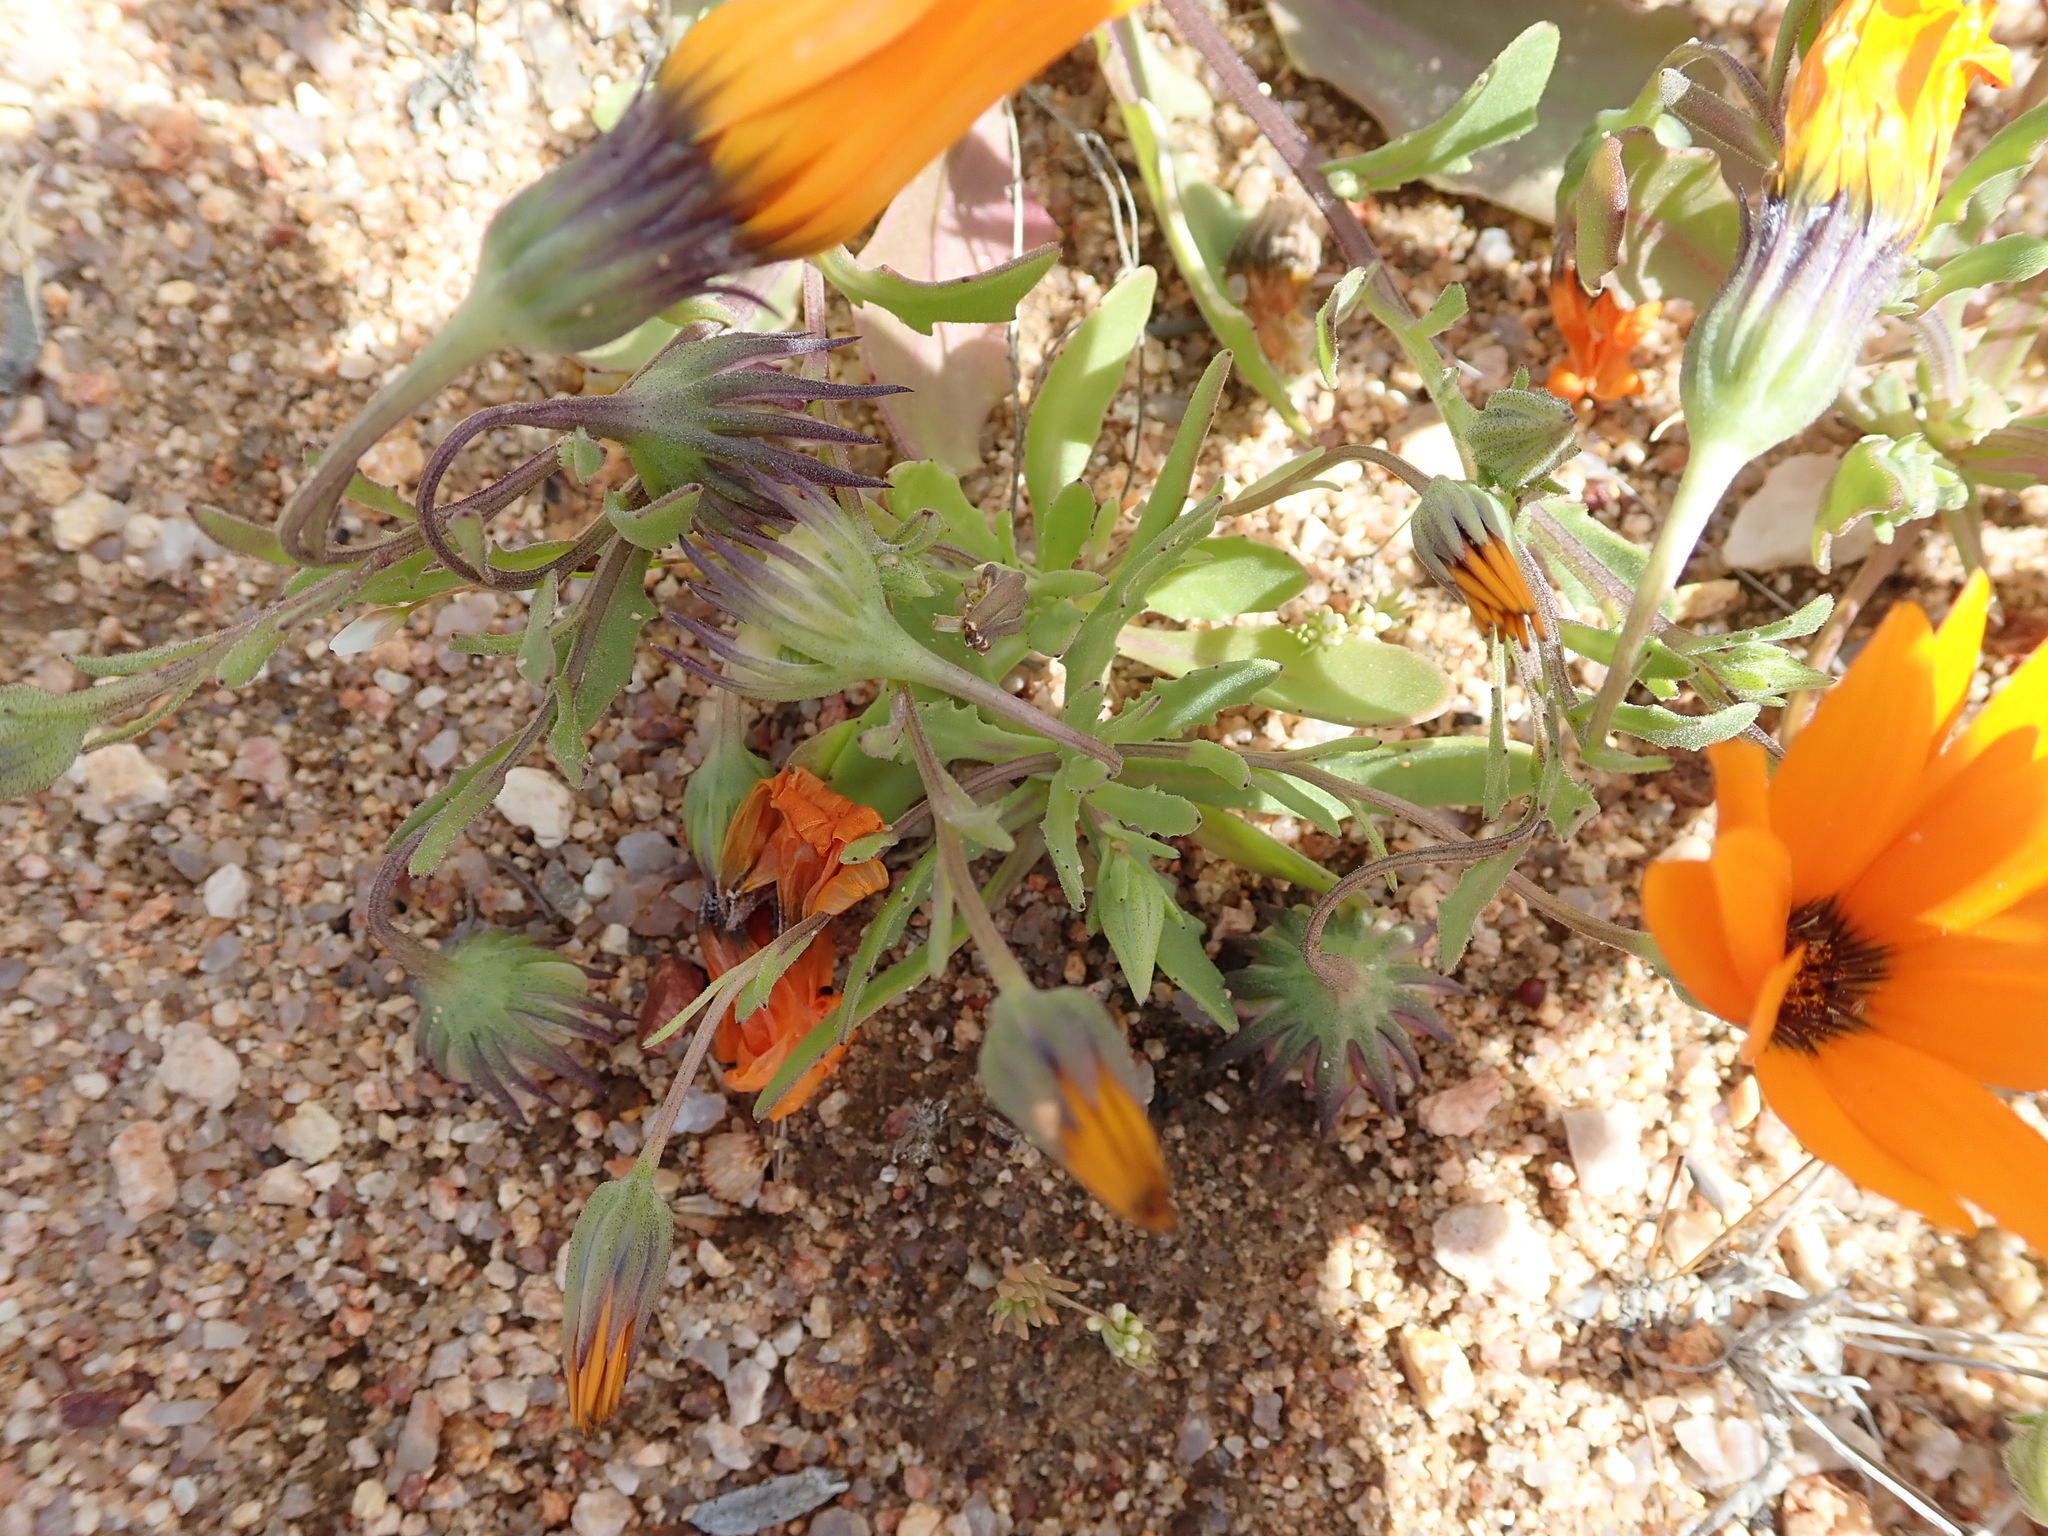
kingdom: Plantae
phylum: Tracheophyta
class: Magnoliopsida
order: Asterales
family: Asteraceae
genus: Dimorphotheca
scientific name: Dimorphotheca sinuata
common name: Glandular cape marigold
